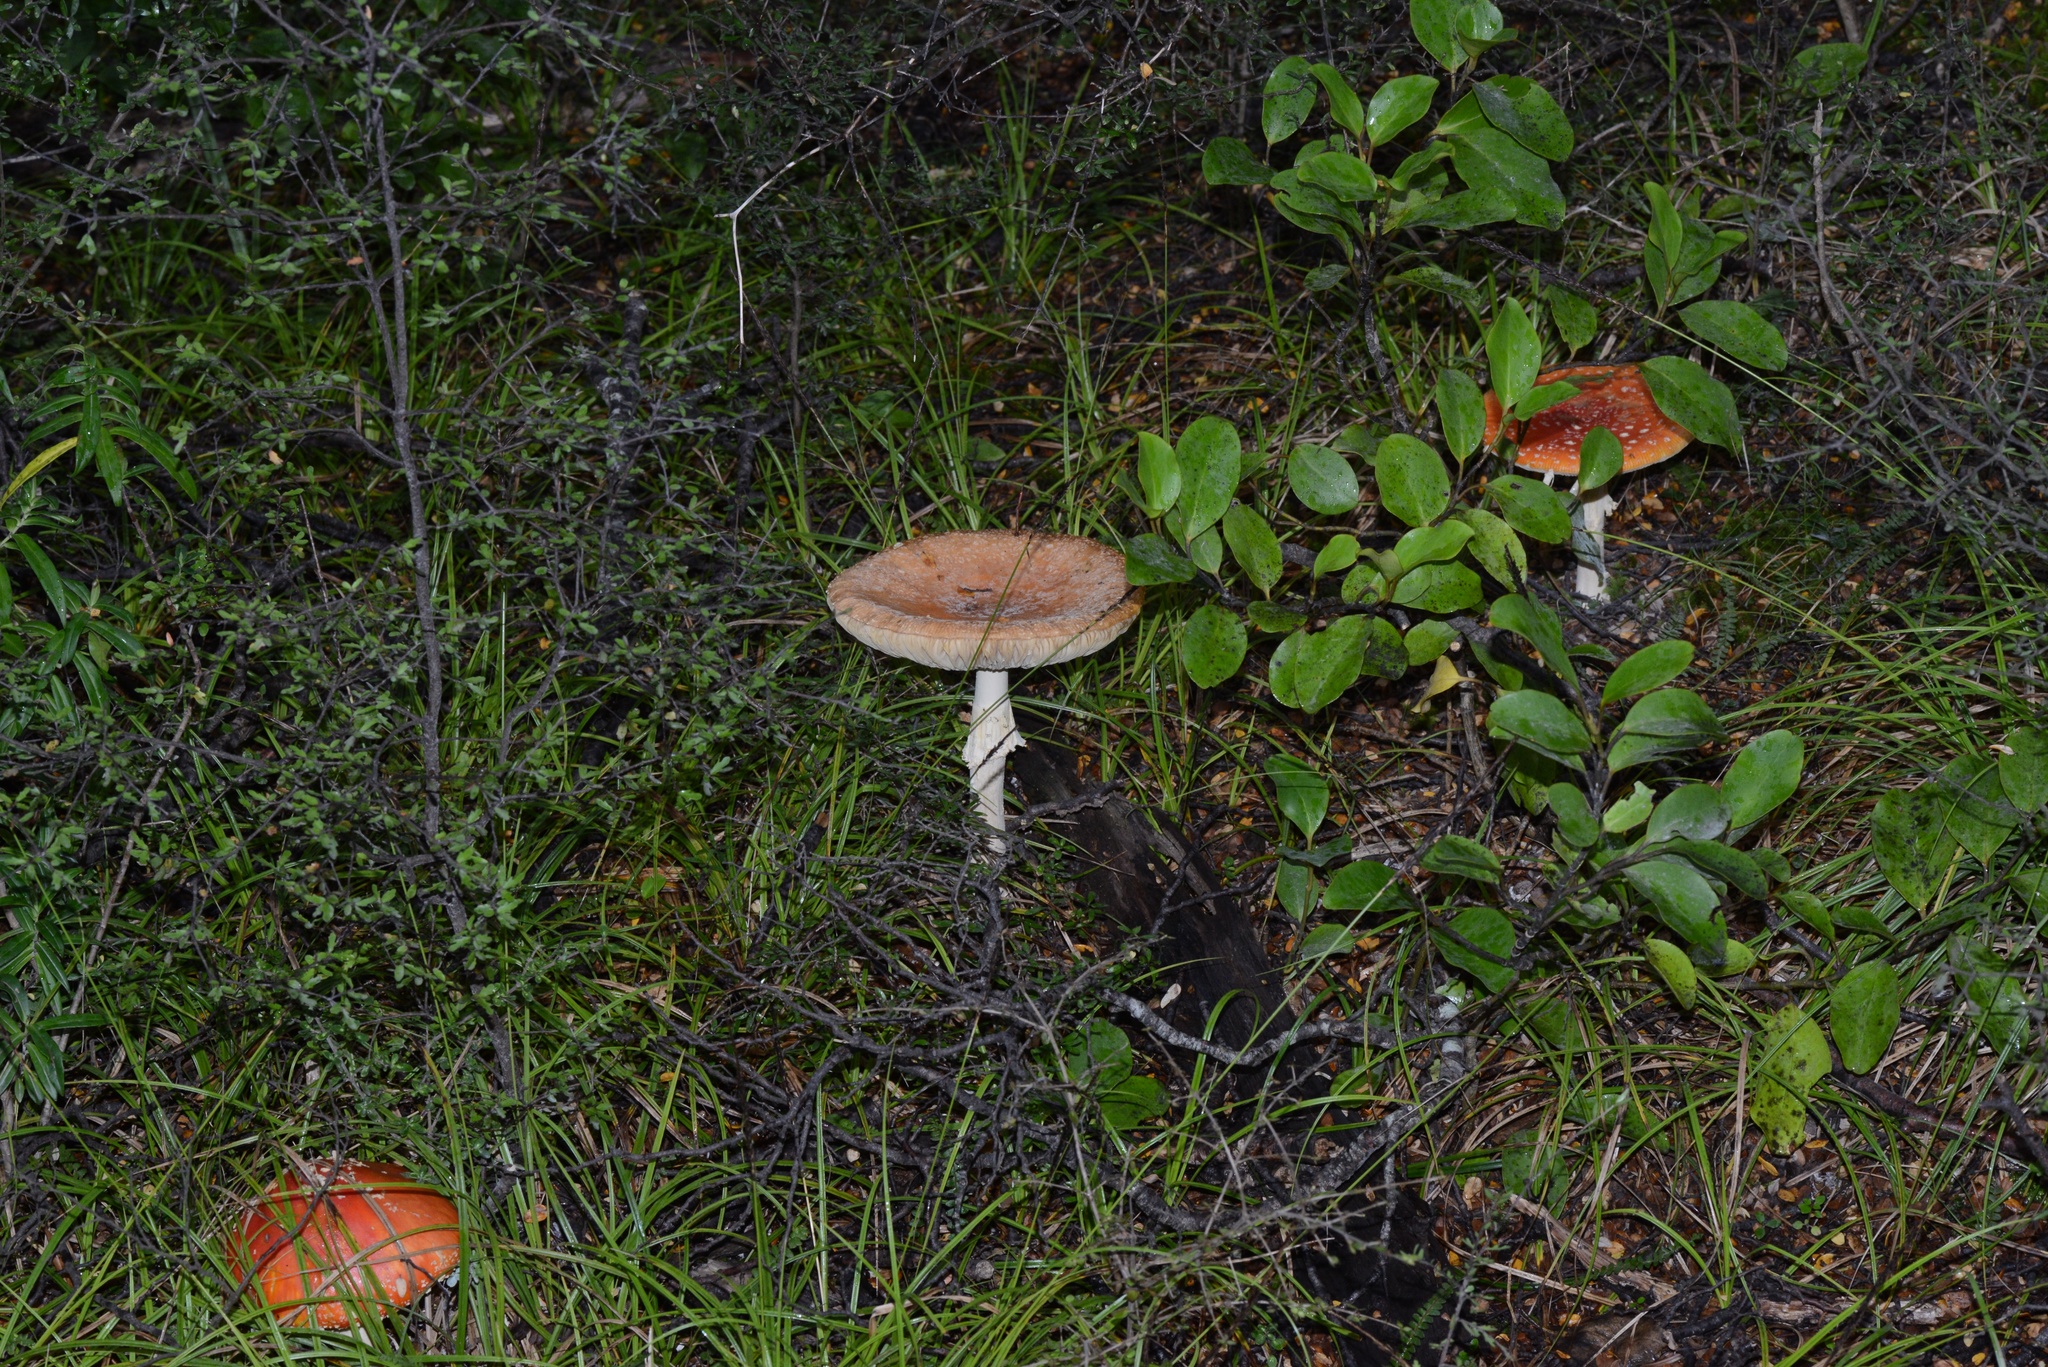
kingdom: Fungi
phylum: Basidiomycota
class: Agaricomycetes
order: Agaricales
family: Amanitaceae
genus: Amanita
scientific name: Amanita muscaria
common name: Fly agaric
